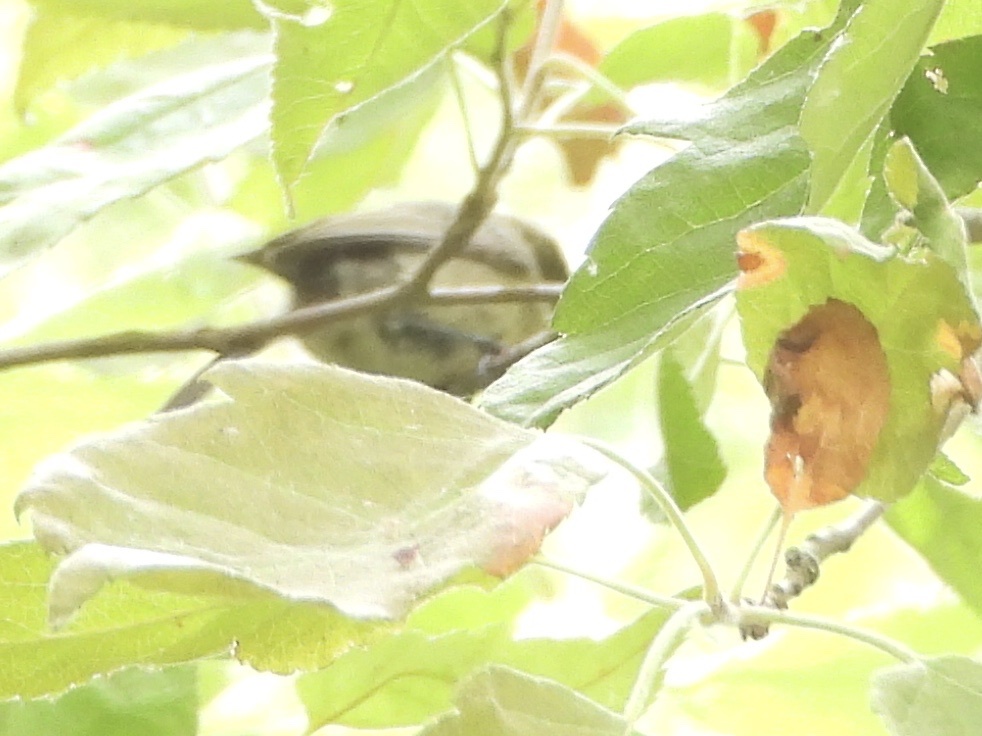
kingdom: Animalia
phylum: Chordata
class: Aves
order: Passeriformes
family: Aegithalidae
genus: Psaltriparus
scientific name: Psaltriparus minimus
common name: American bushtit
